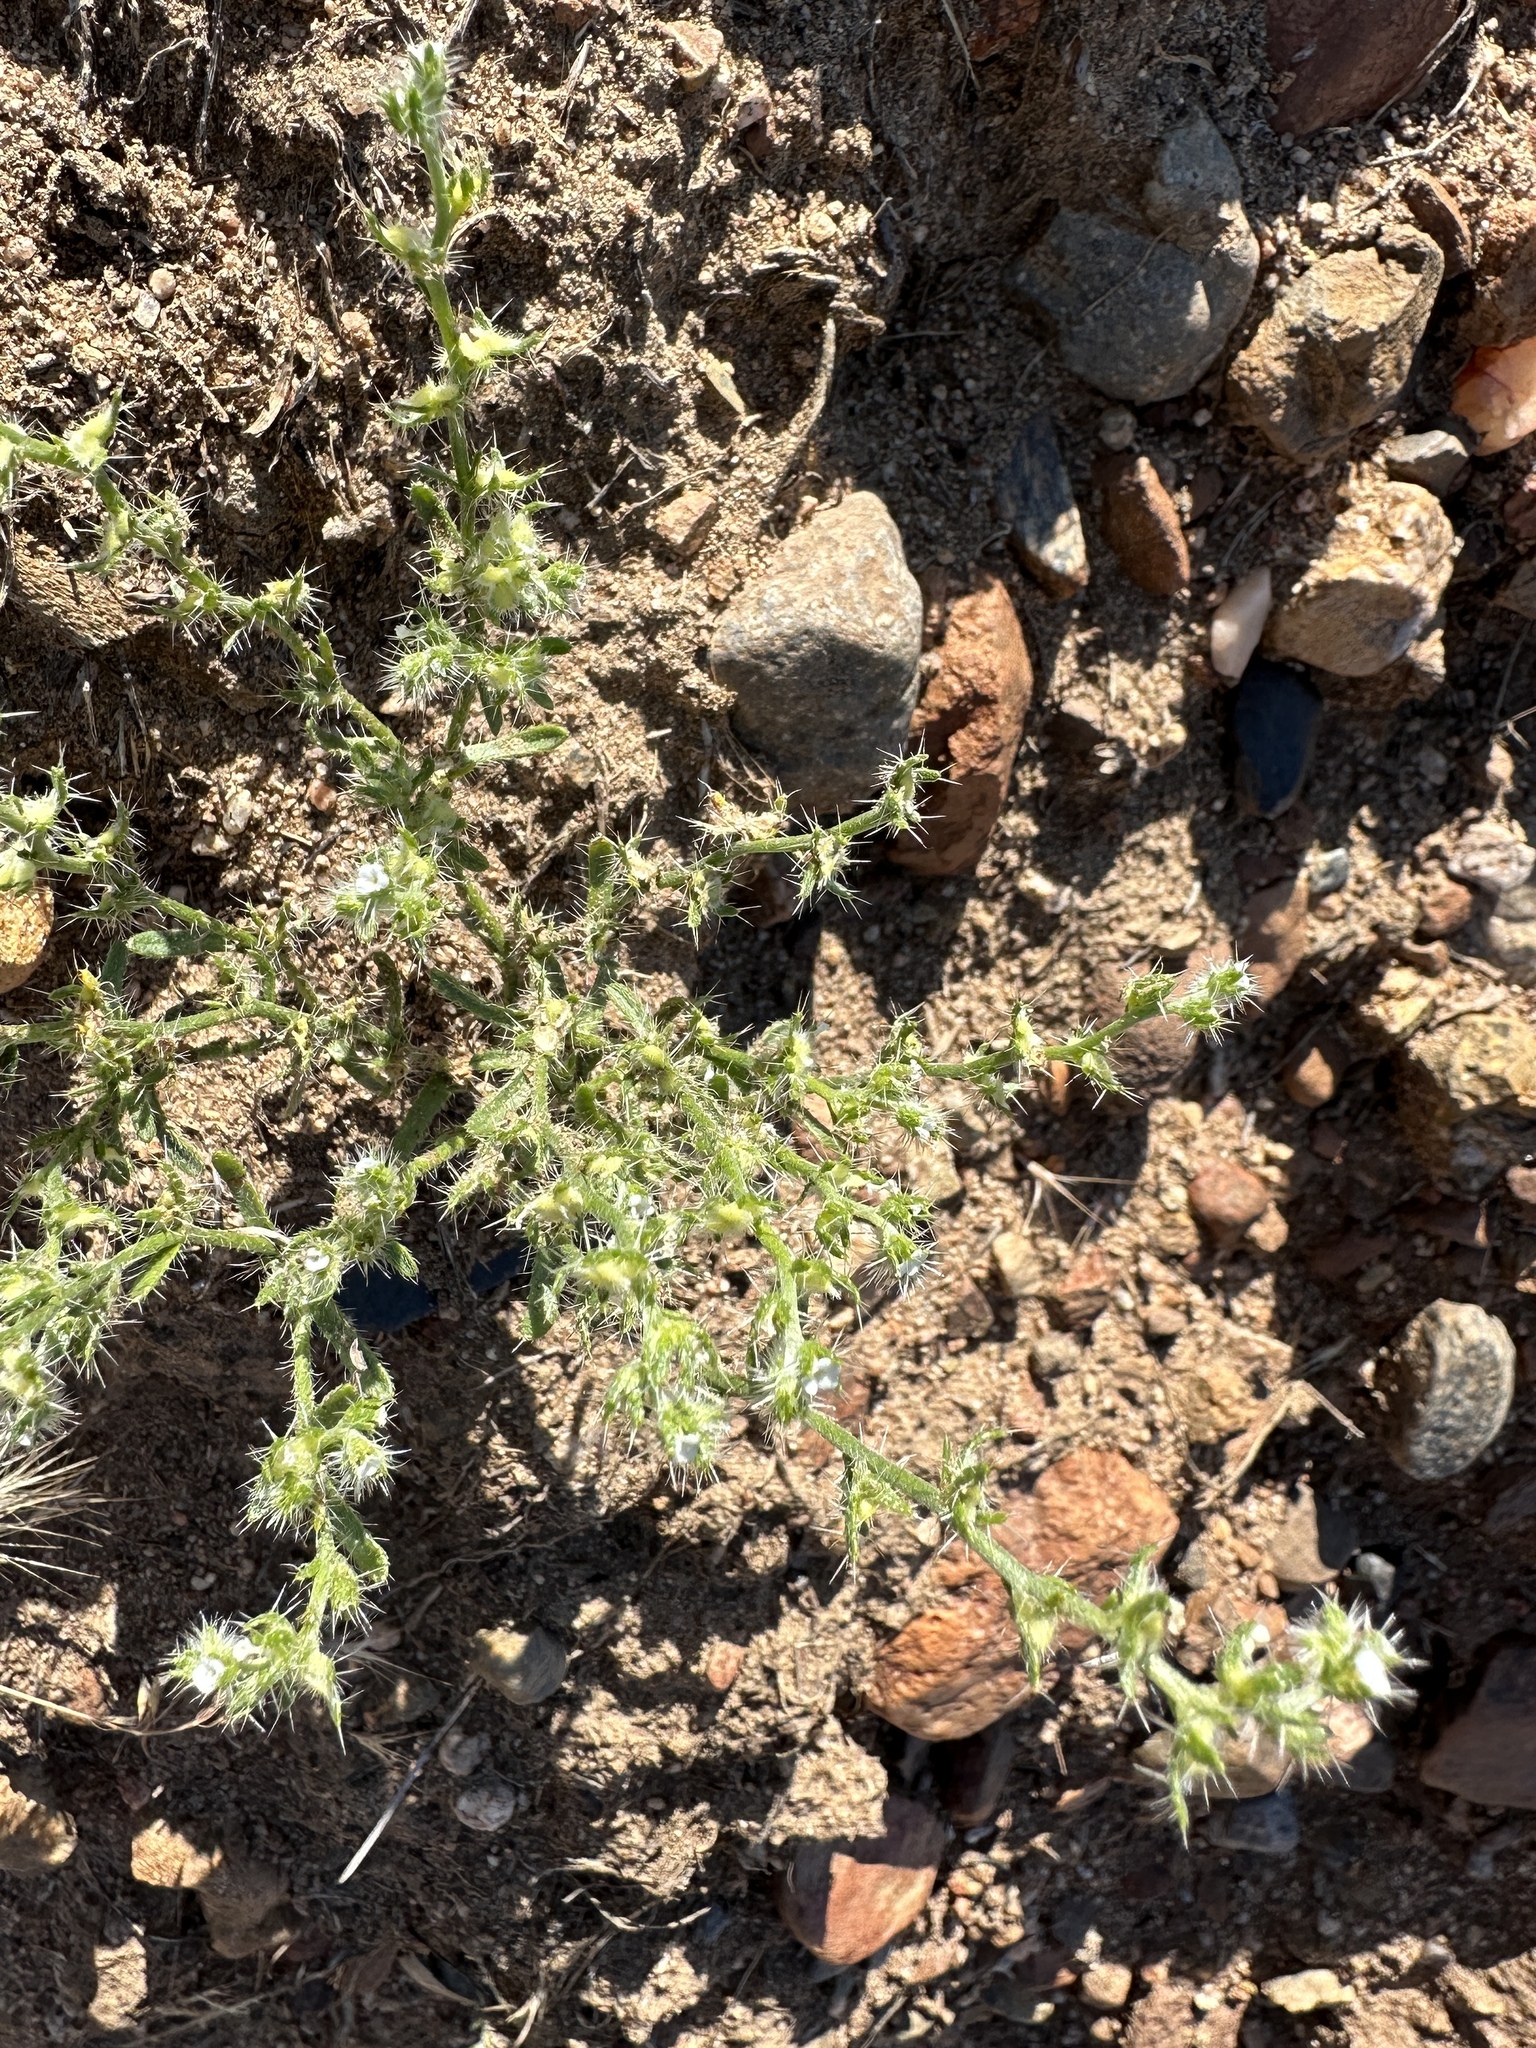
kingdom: Plantae
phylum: Tracheophyta
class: Magnoliopsida
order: Boraginales
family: Boraginaceae
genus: Pectocarya
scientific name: Pectocarya setosa
